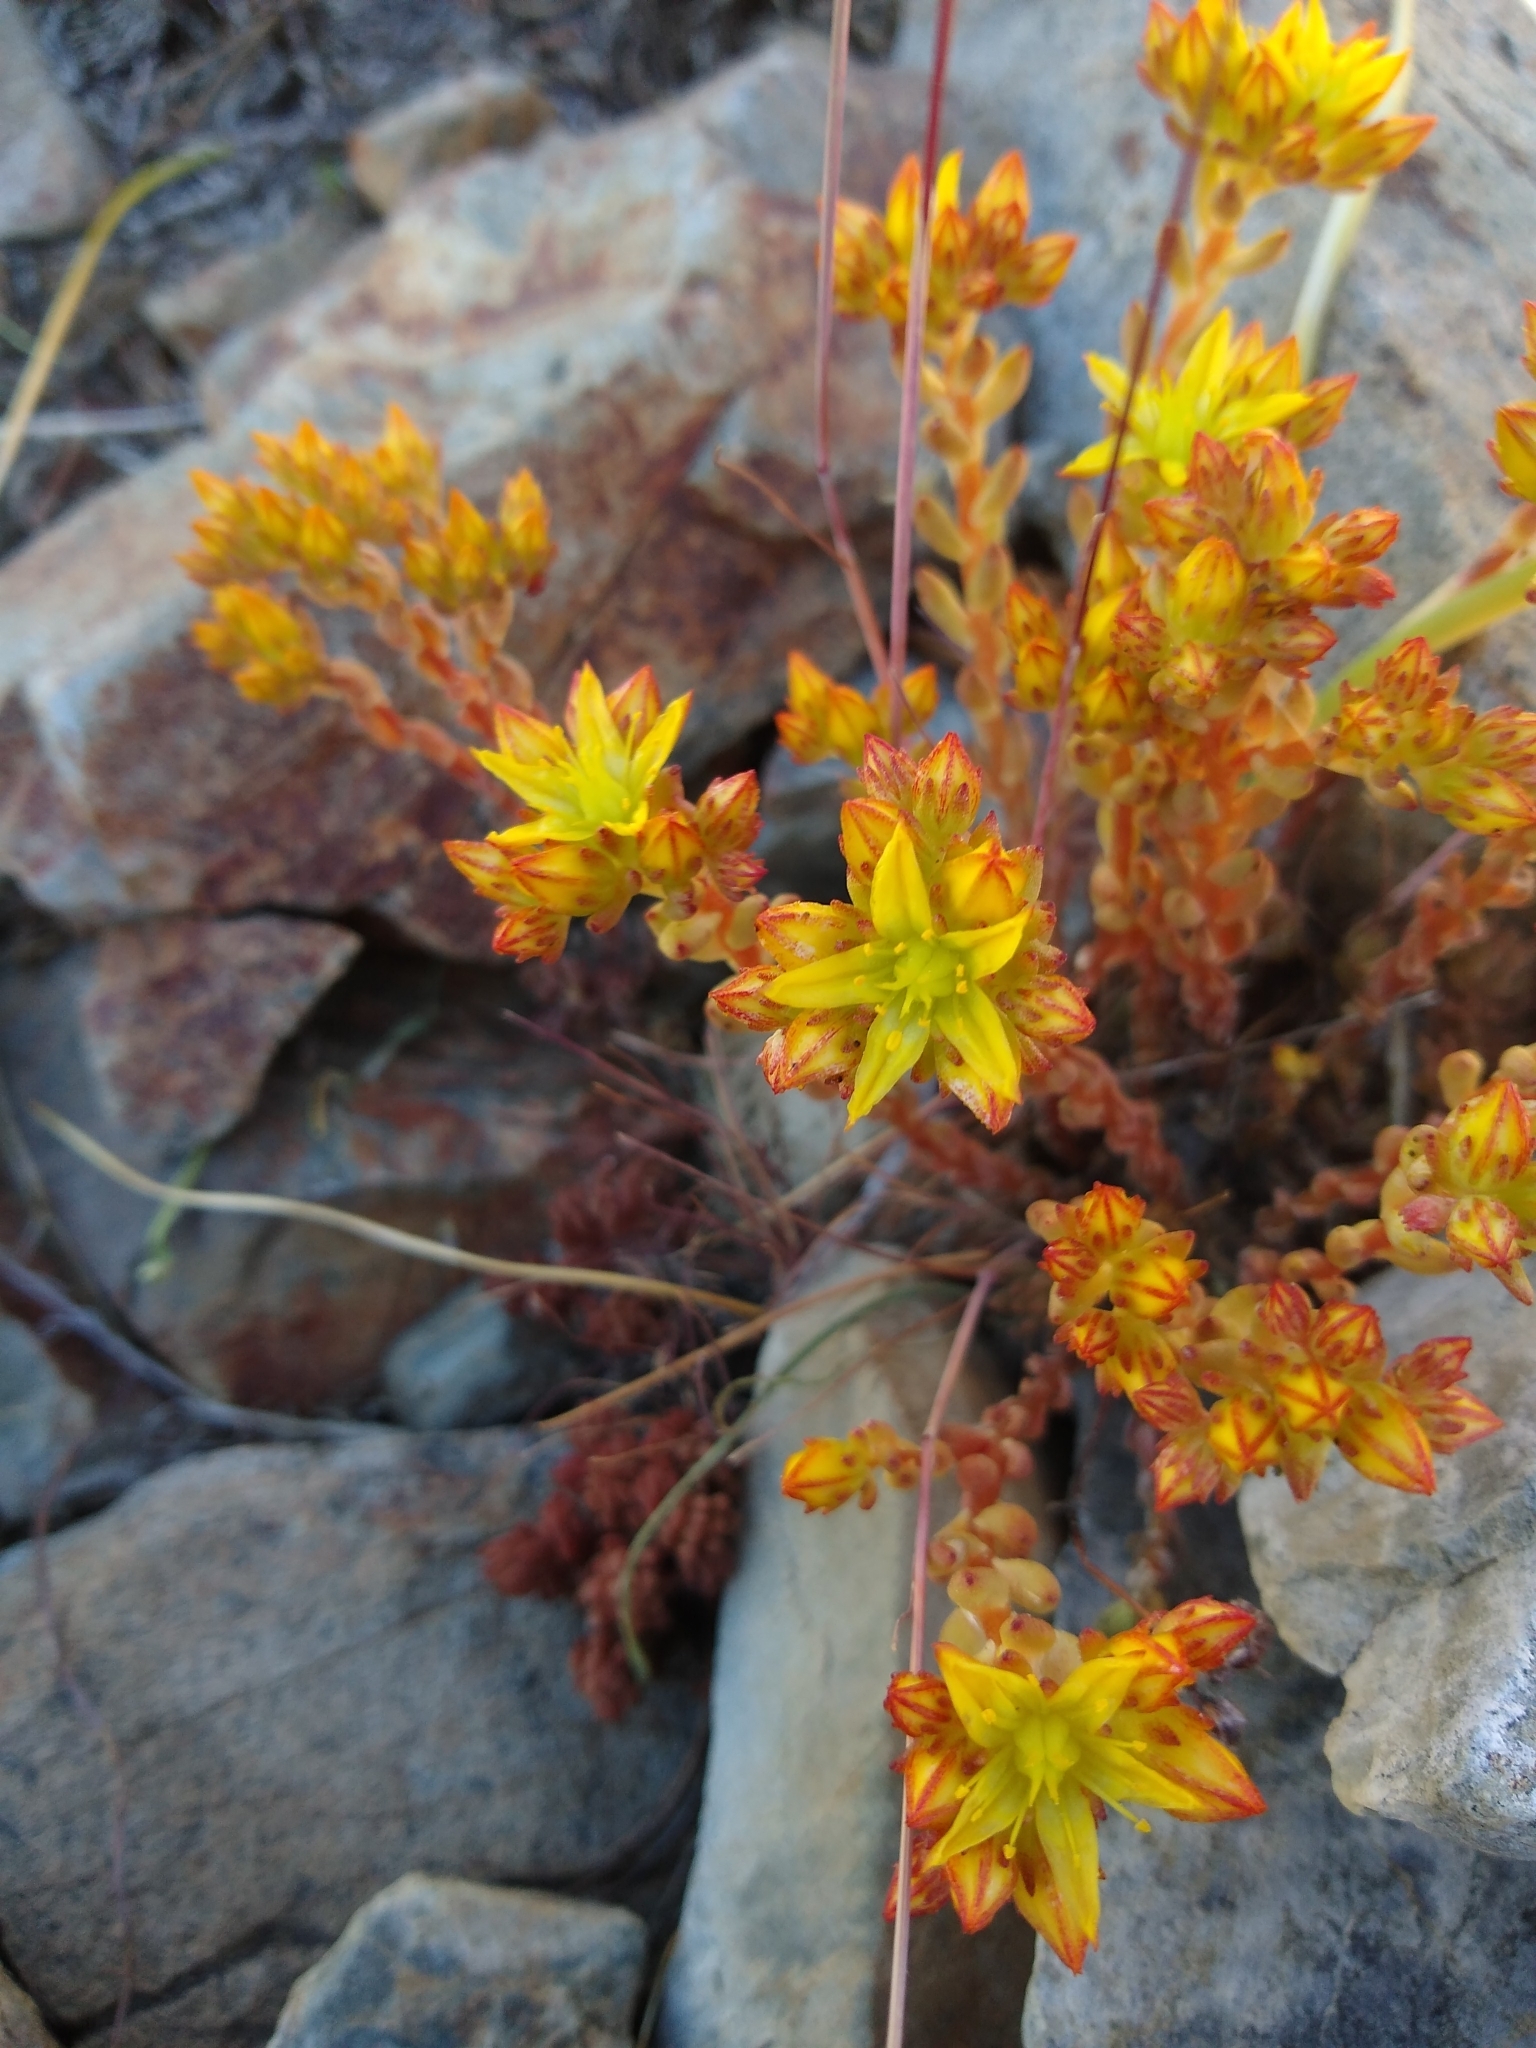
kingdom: Plantae
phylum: Tracheophyta
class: Magnoliopsida
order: Saxifragales
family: Crassulaceae
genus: Sedum
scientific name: Sedum lanceolatum
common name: Common stonecrop
